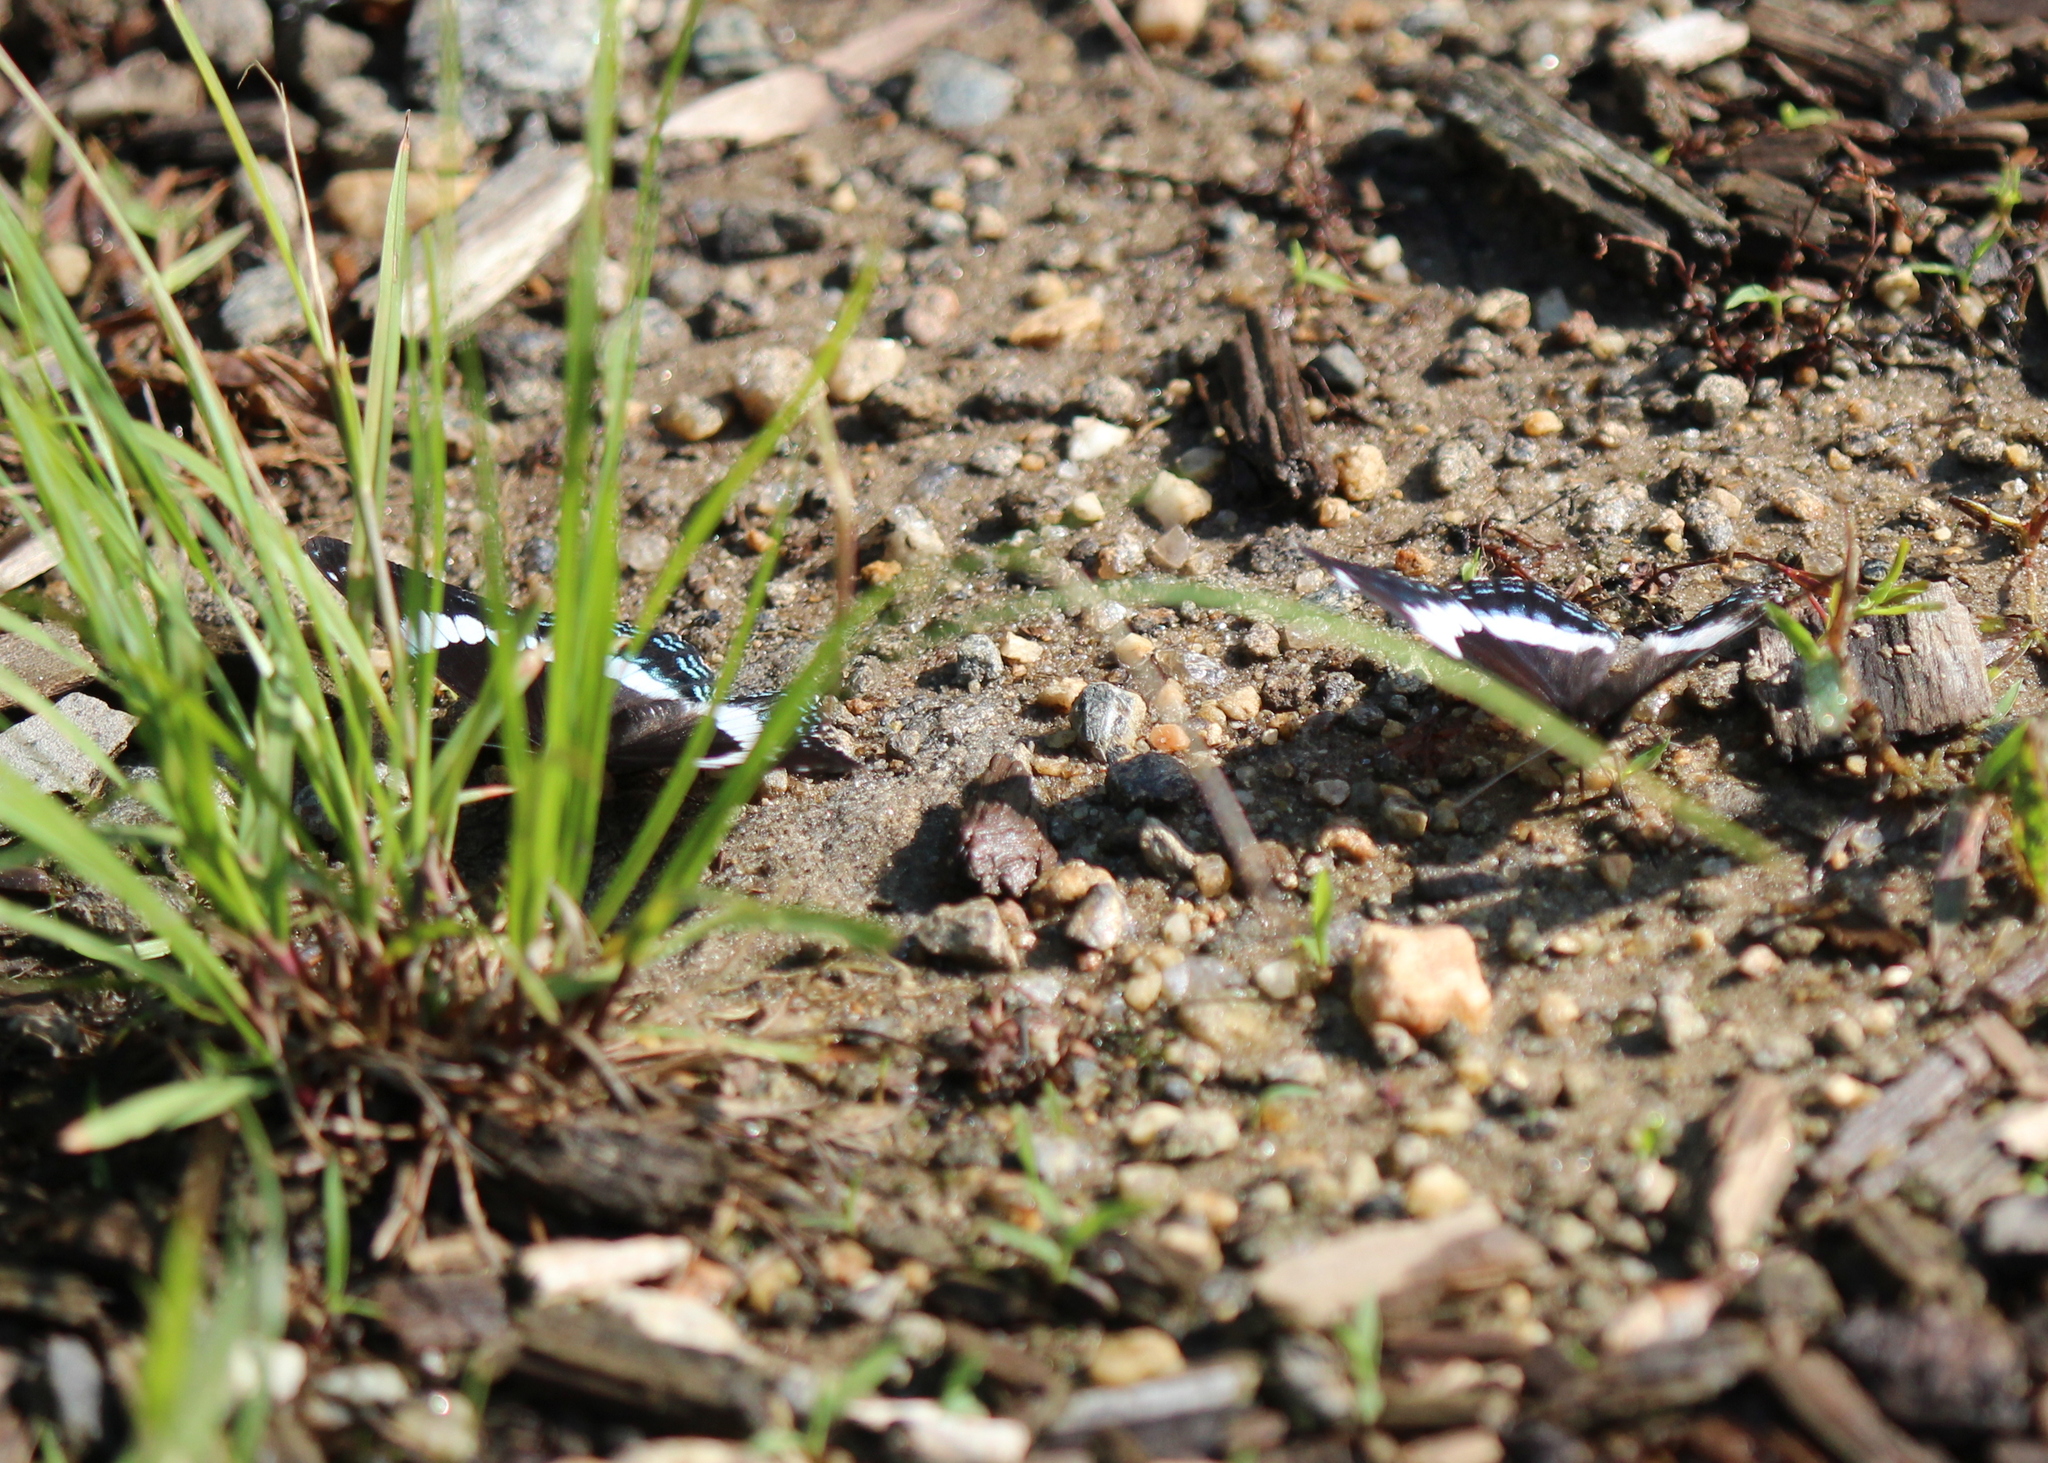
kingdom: Animalia
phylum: Arthropoda
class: Insecta
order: Lepidoptera
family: Nymphalidae
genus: Limenitis
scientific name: Limenitis arthemis
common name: Red-spotted admiral
